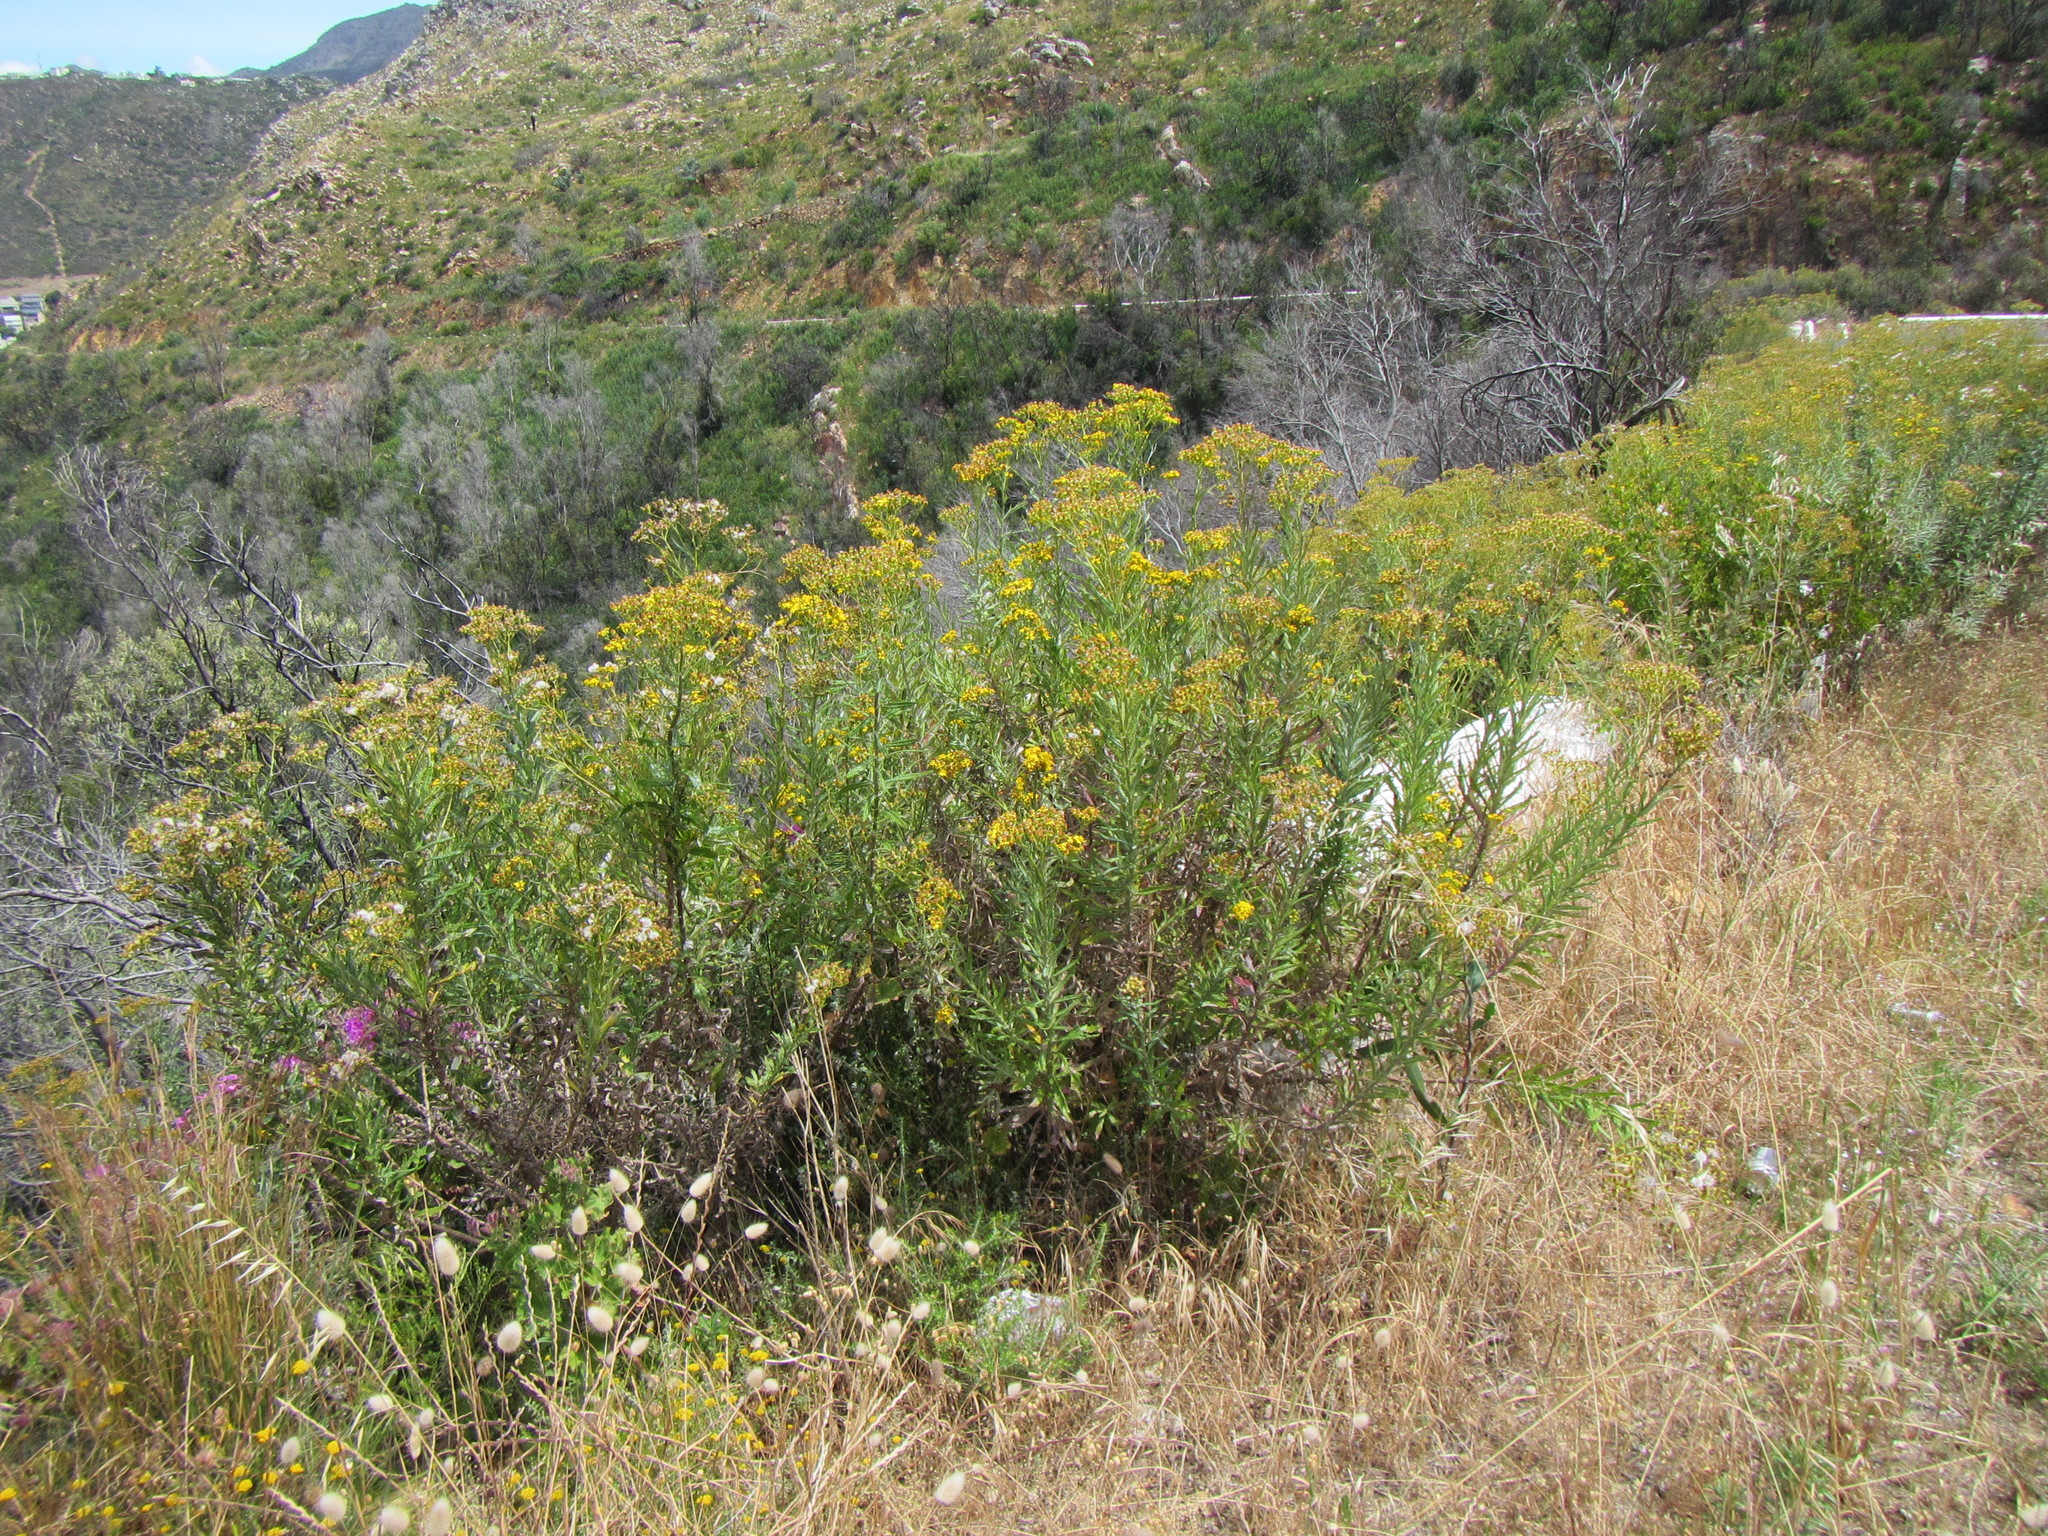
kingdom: Plantae
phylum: Tracheophyta
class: Magnoliopsida
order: Asterales
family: Asteraceae
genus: Senecio
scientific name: Senecio pterophorus
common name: Shoddy ragwort
